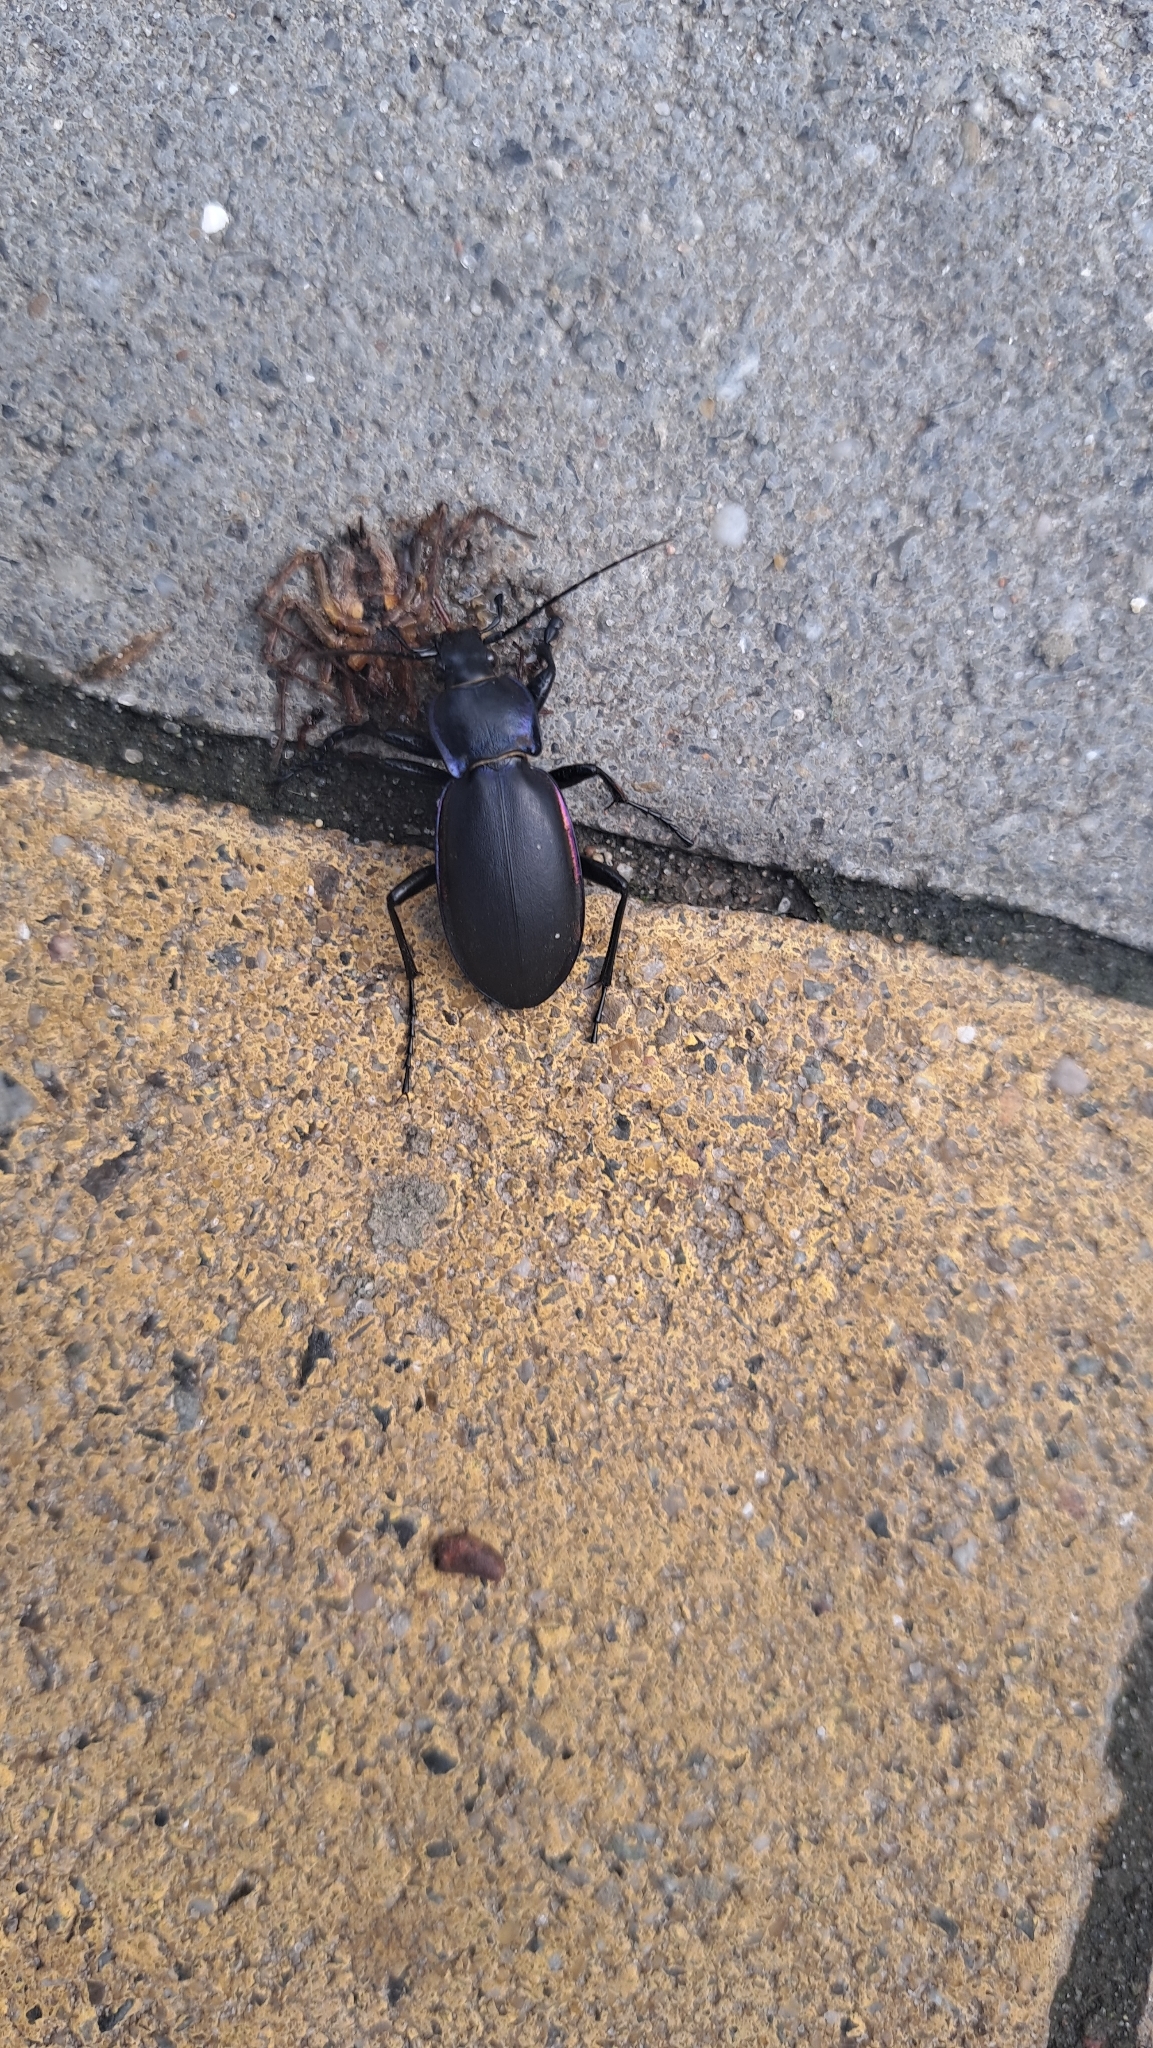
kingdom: Animalia
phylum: Arthropoda
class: Insecta
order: Coleoptera
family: Carabidae
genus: Carabus
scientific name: Carabus violaceus
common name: Violet ground beetle
